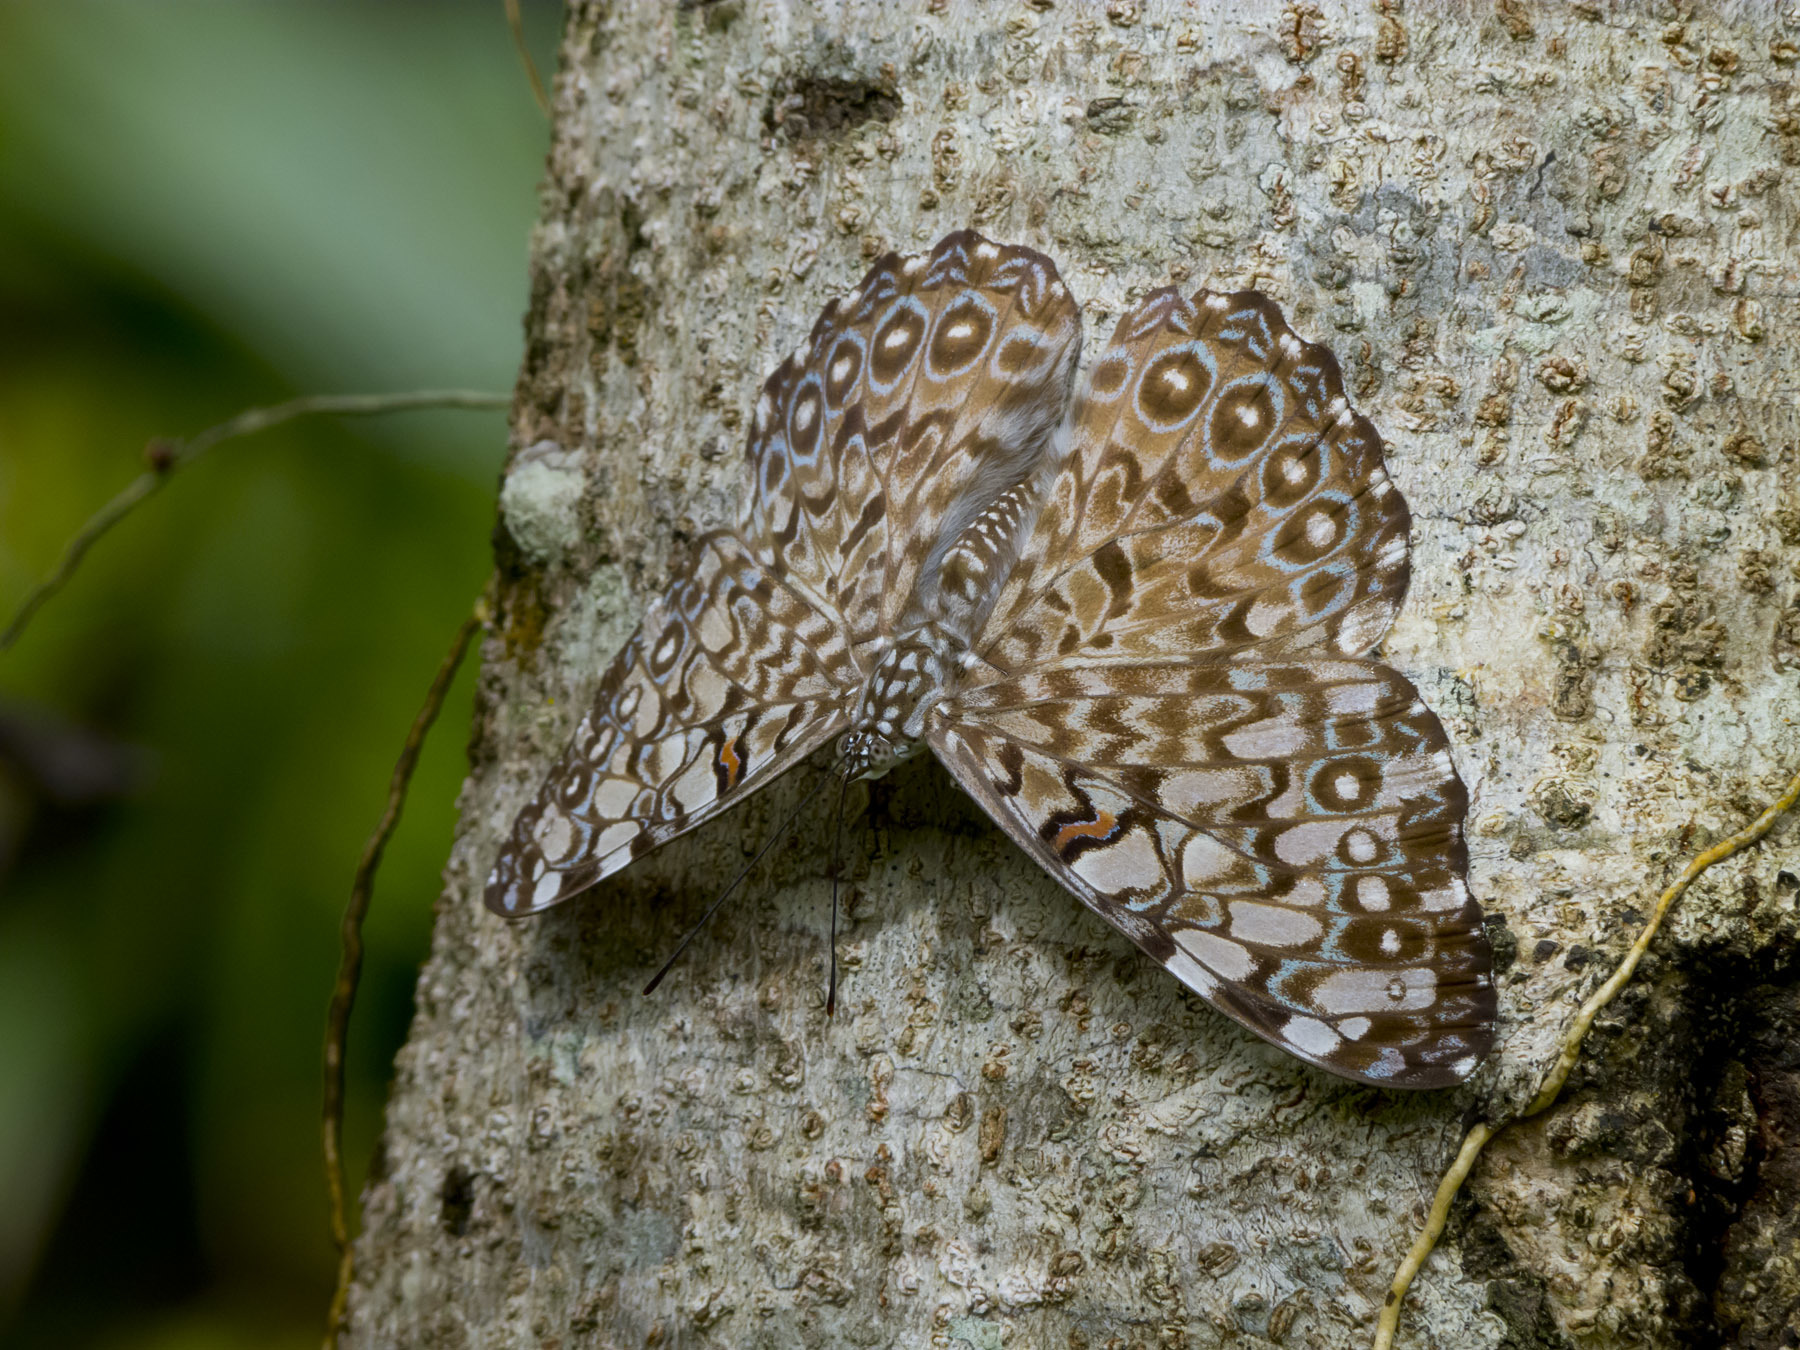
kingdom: Animalia
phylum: Arthropoda
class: Insecta
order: Lepidoptera
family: Nymphalidae
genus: Hamadryas
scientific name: Hamadryas feronia
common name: Variable cracker
